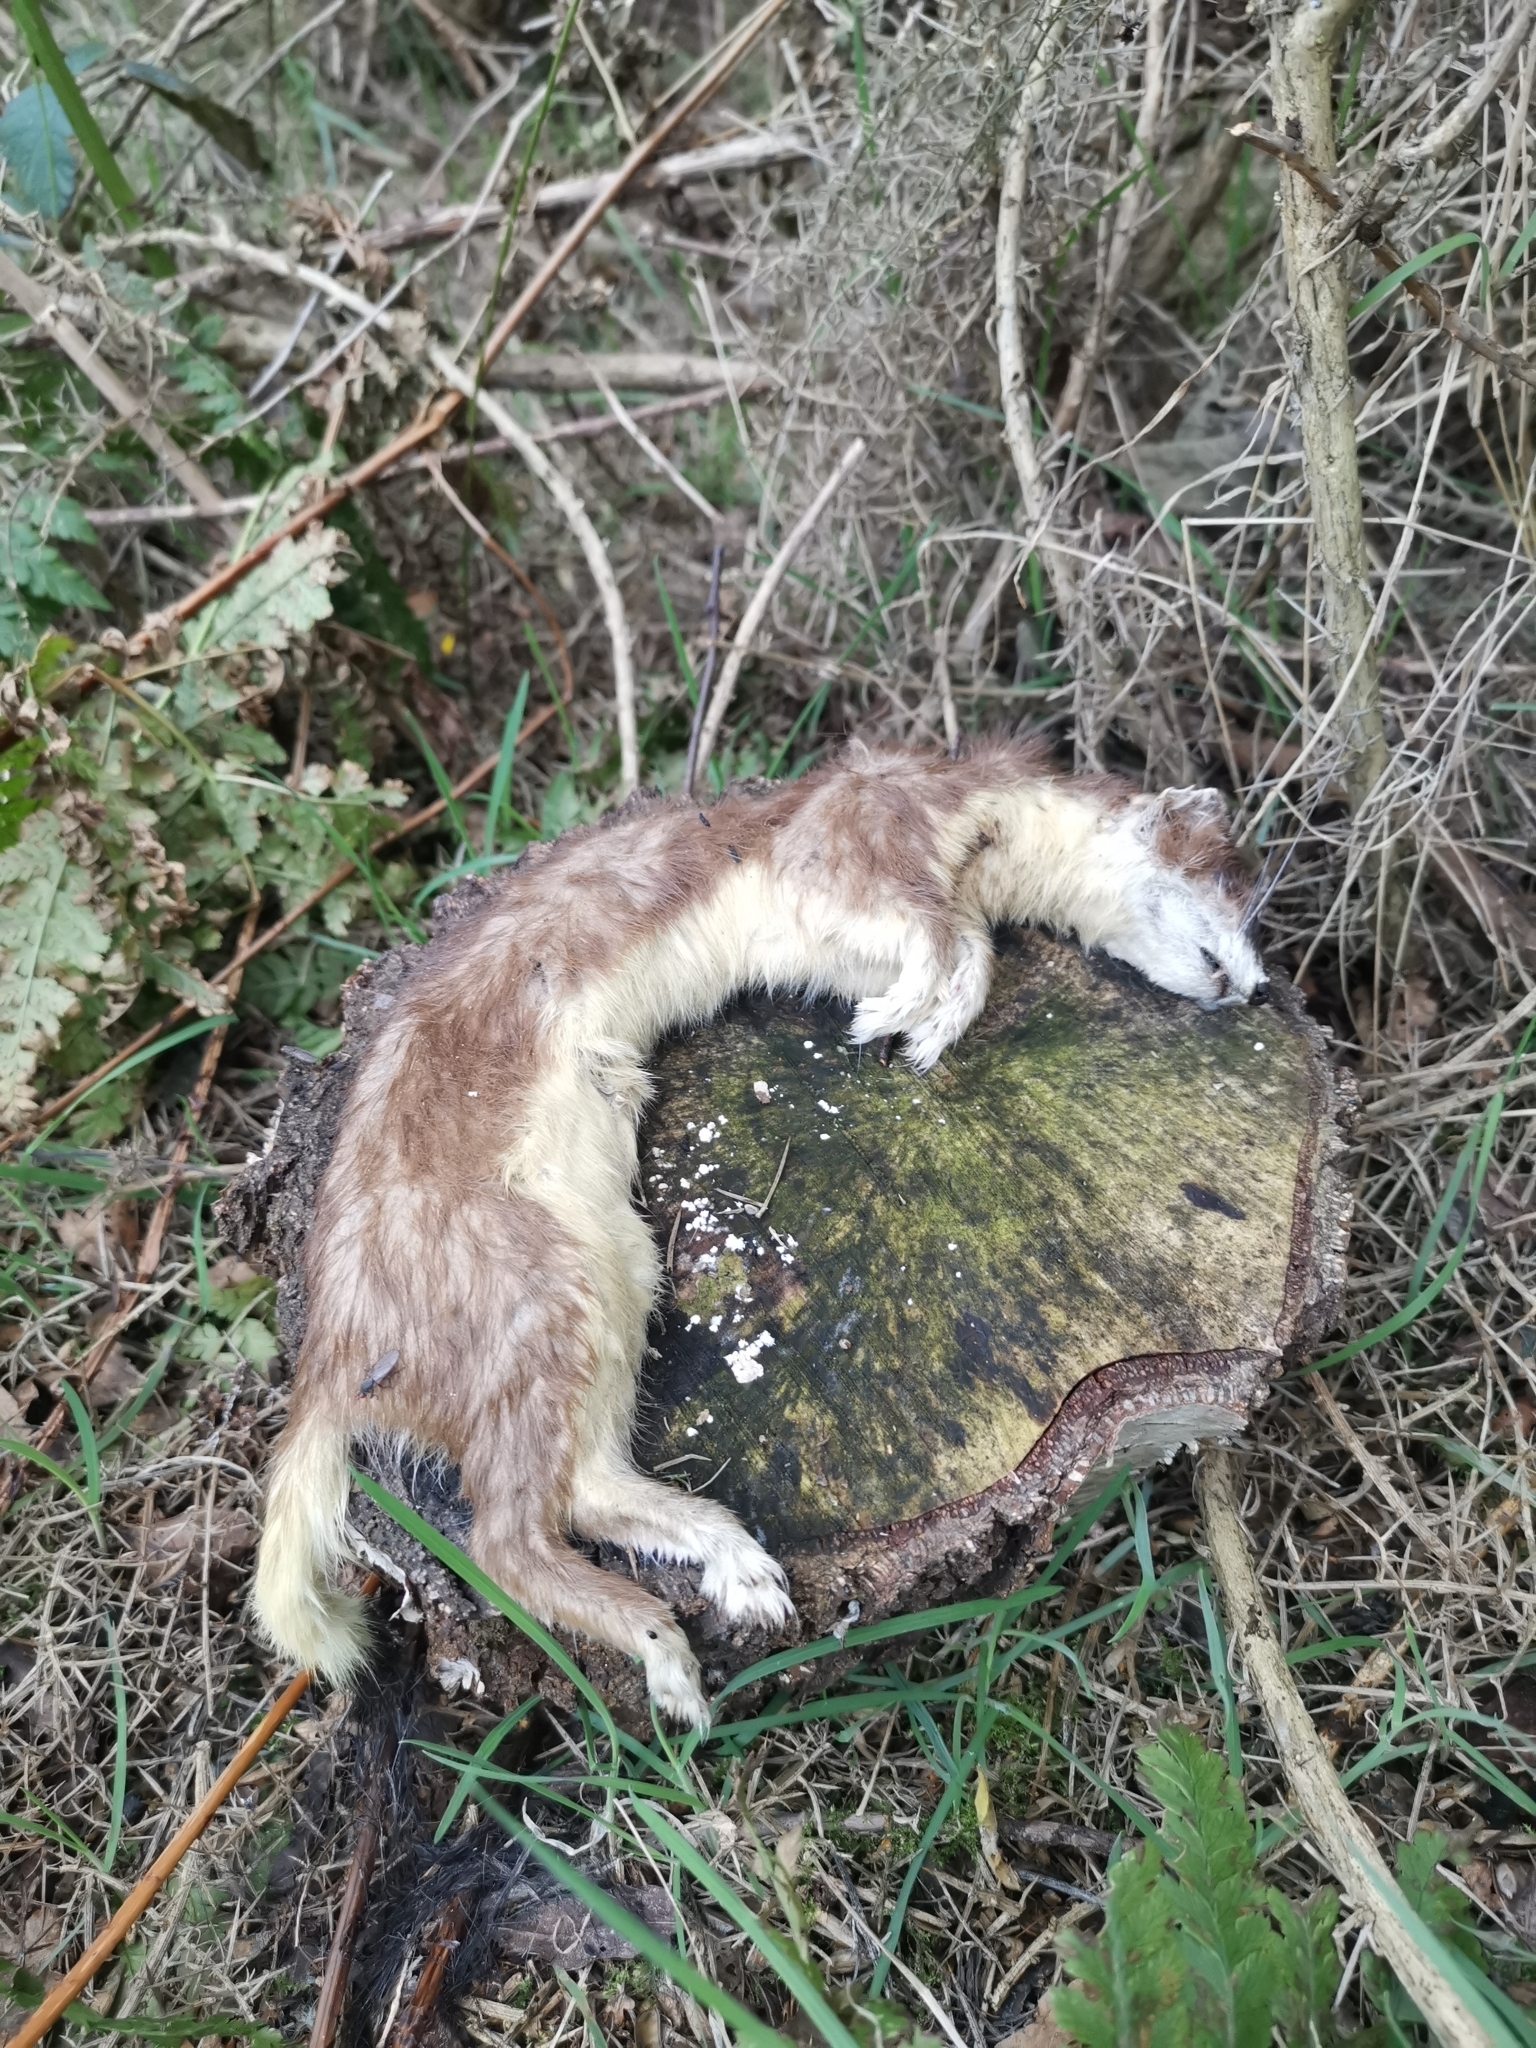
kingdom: Animalia
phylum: Chordata
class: Mammalia
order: Carnivora
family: Mustelidae
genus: Mustela
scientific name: Mustela erminea
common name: Stoat
